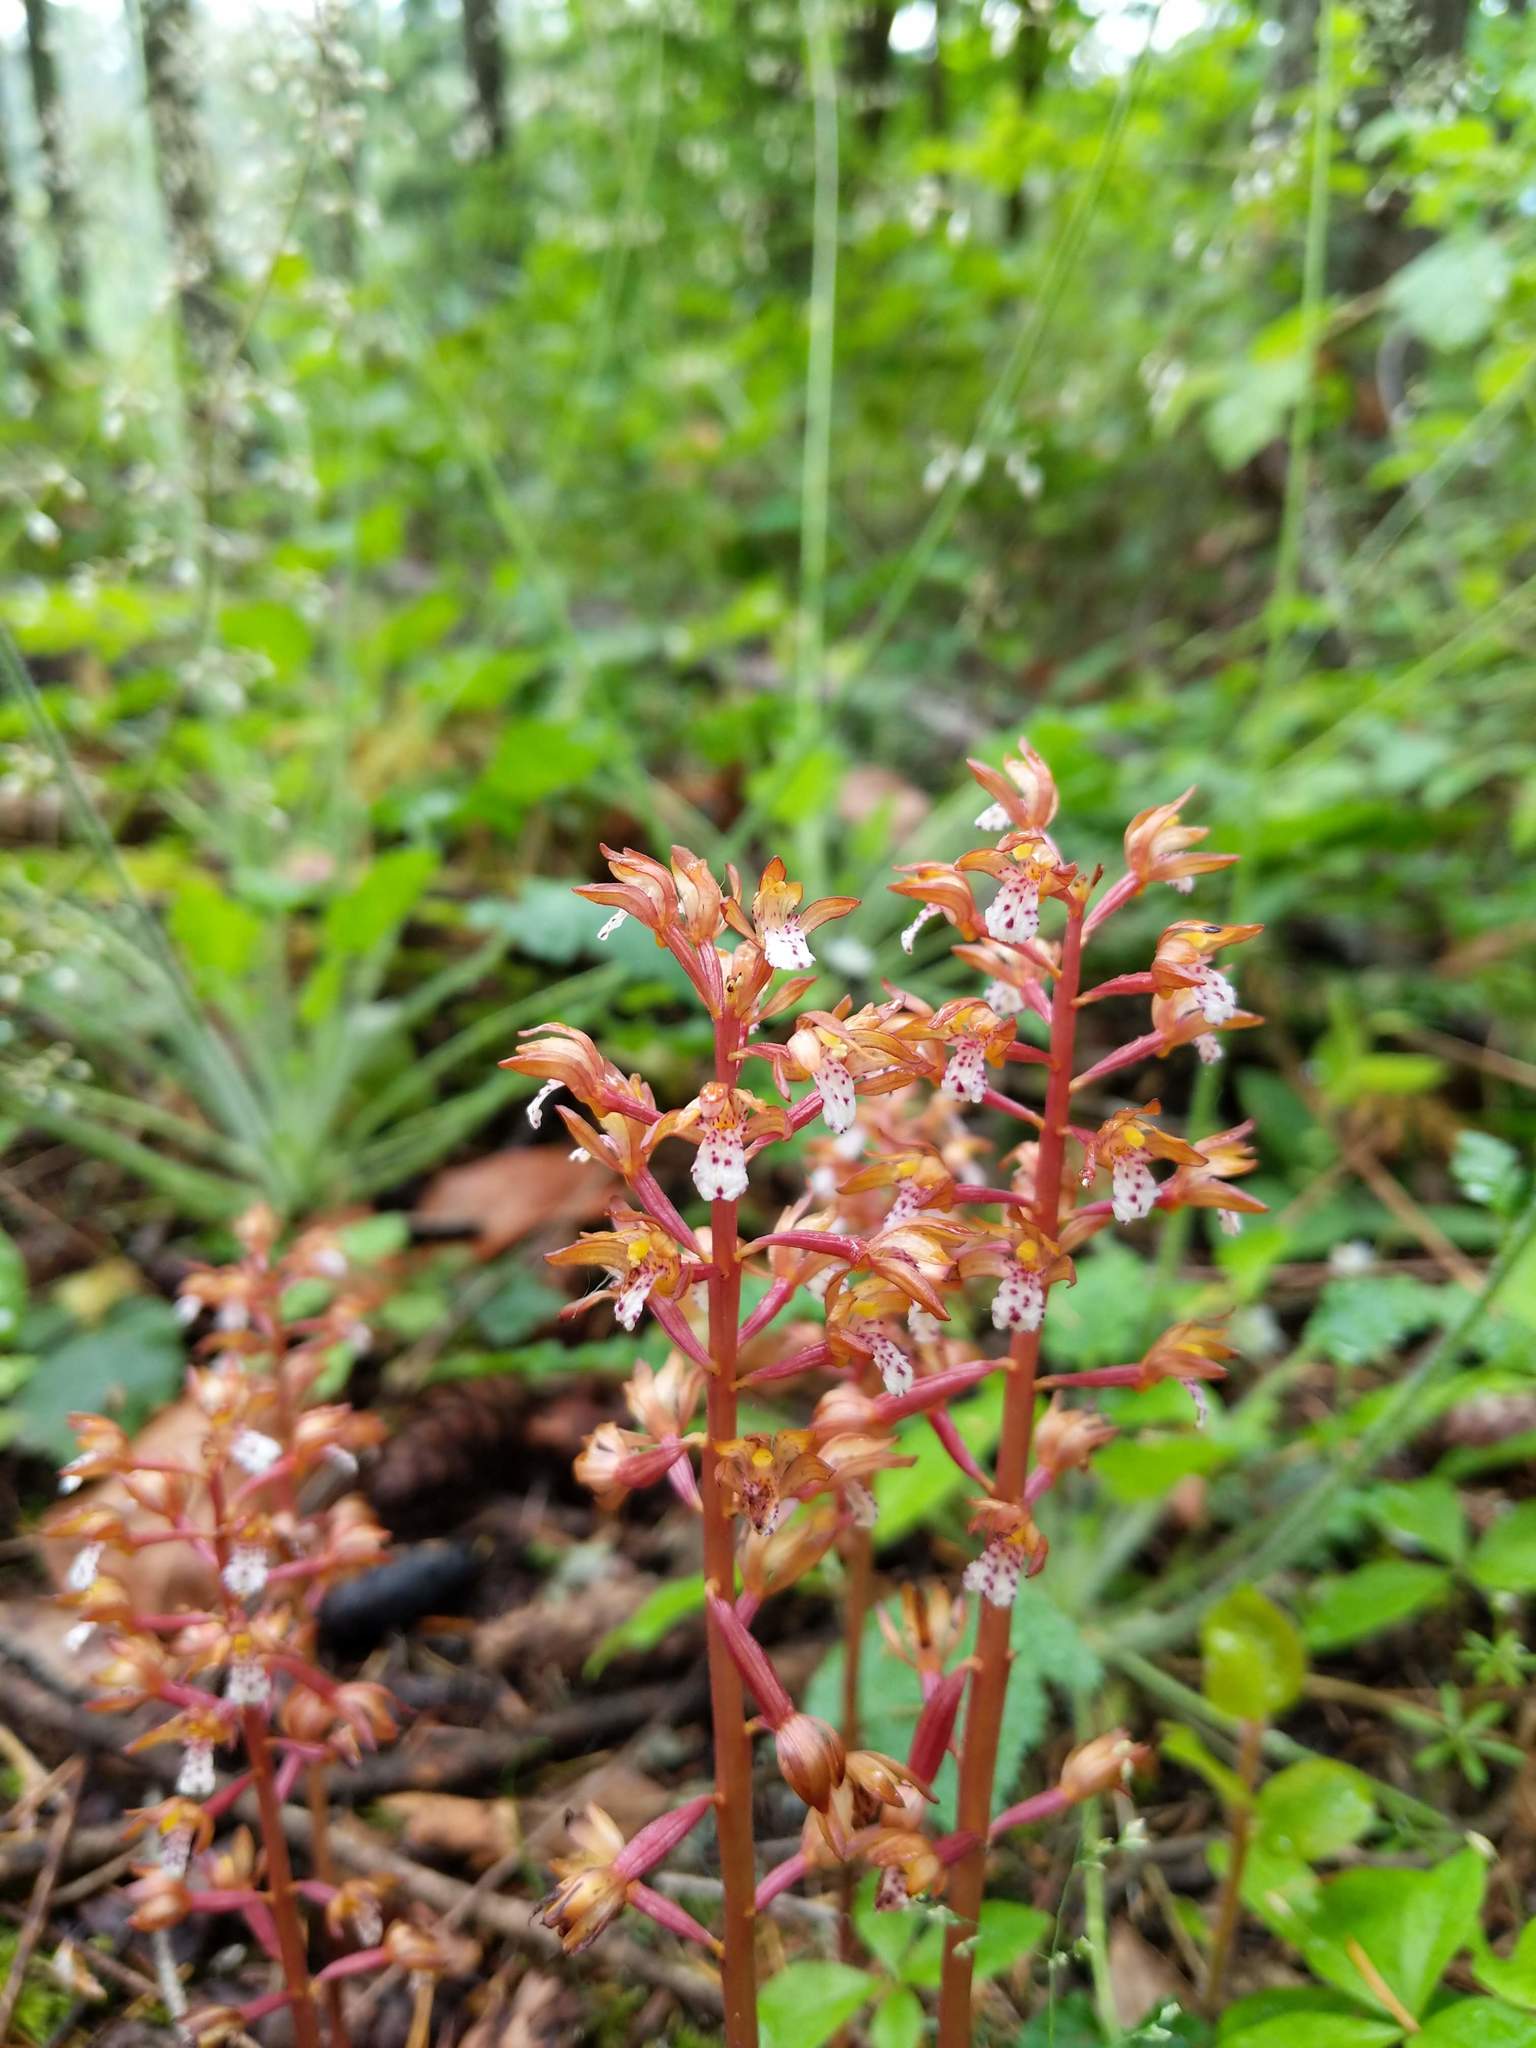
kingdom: Plantae
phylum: Tracheophyta
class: Liliopsida
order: Asparagales
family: Orchidaceae
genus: Corallorhiza
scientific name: Corallorhiza maculata
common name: Spotted coralroot
